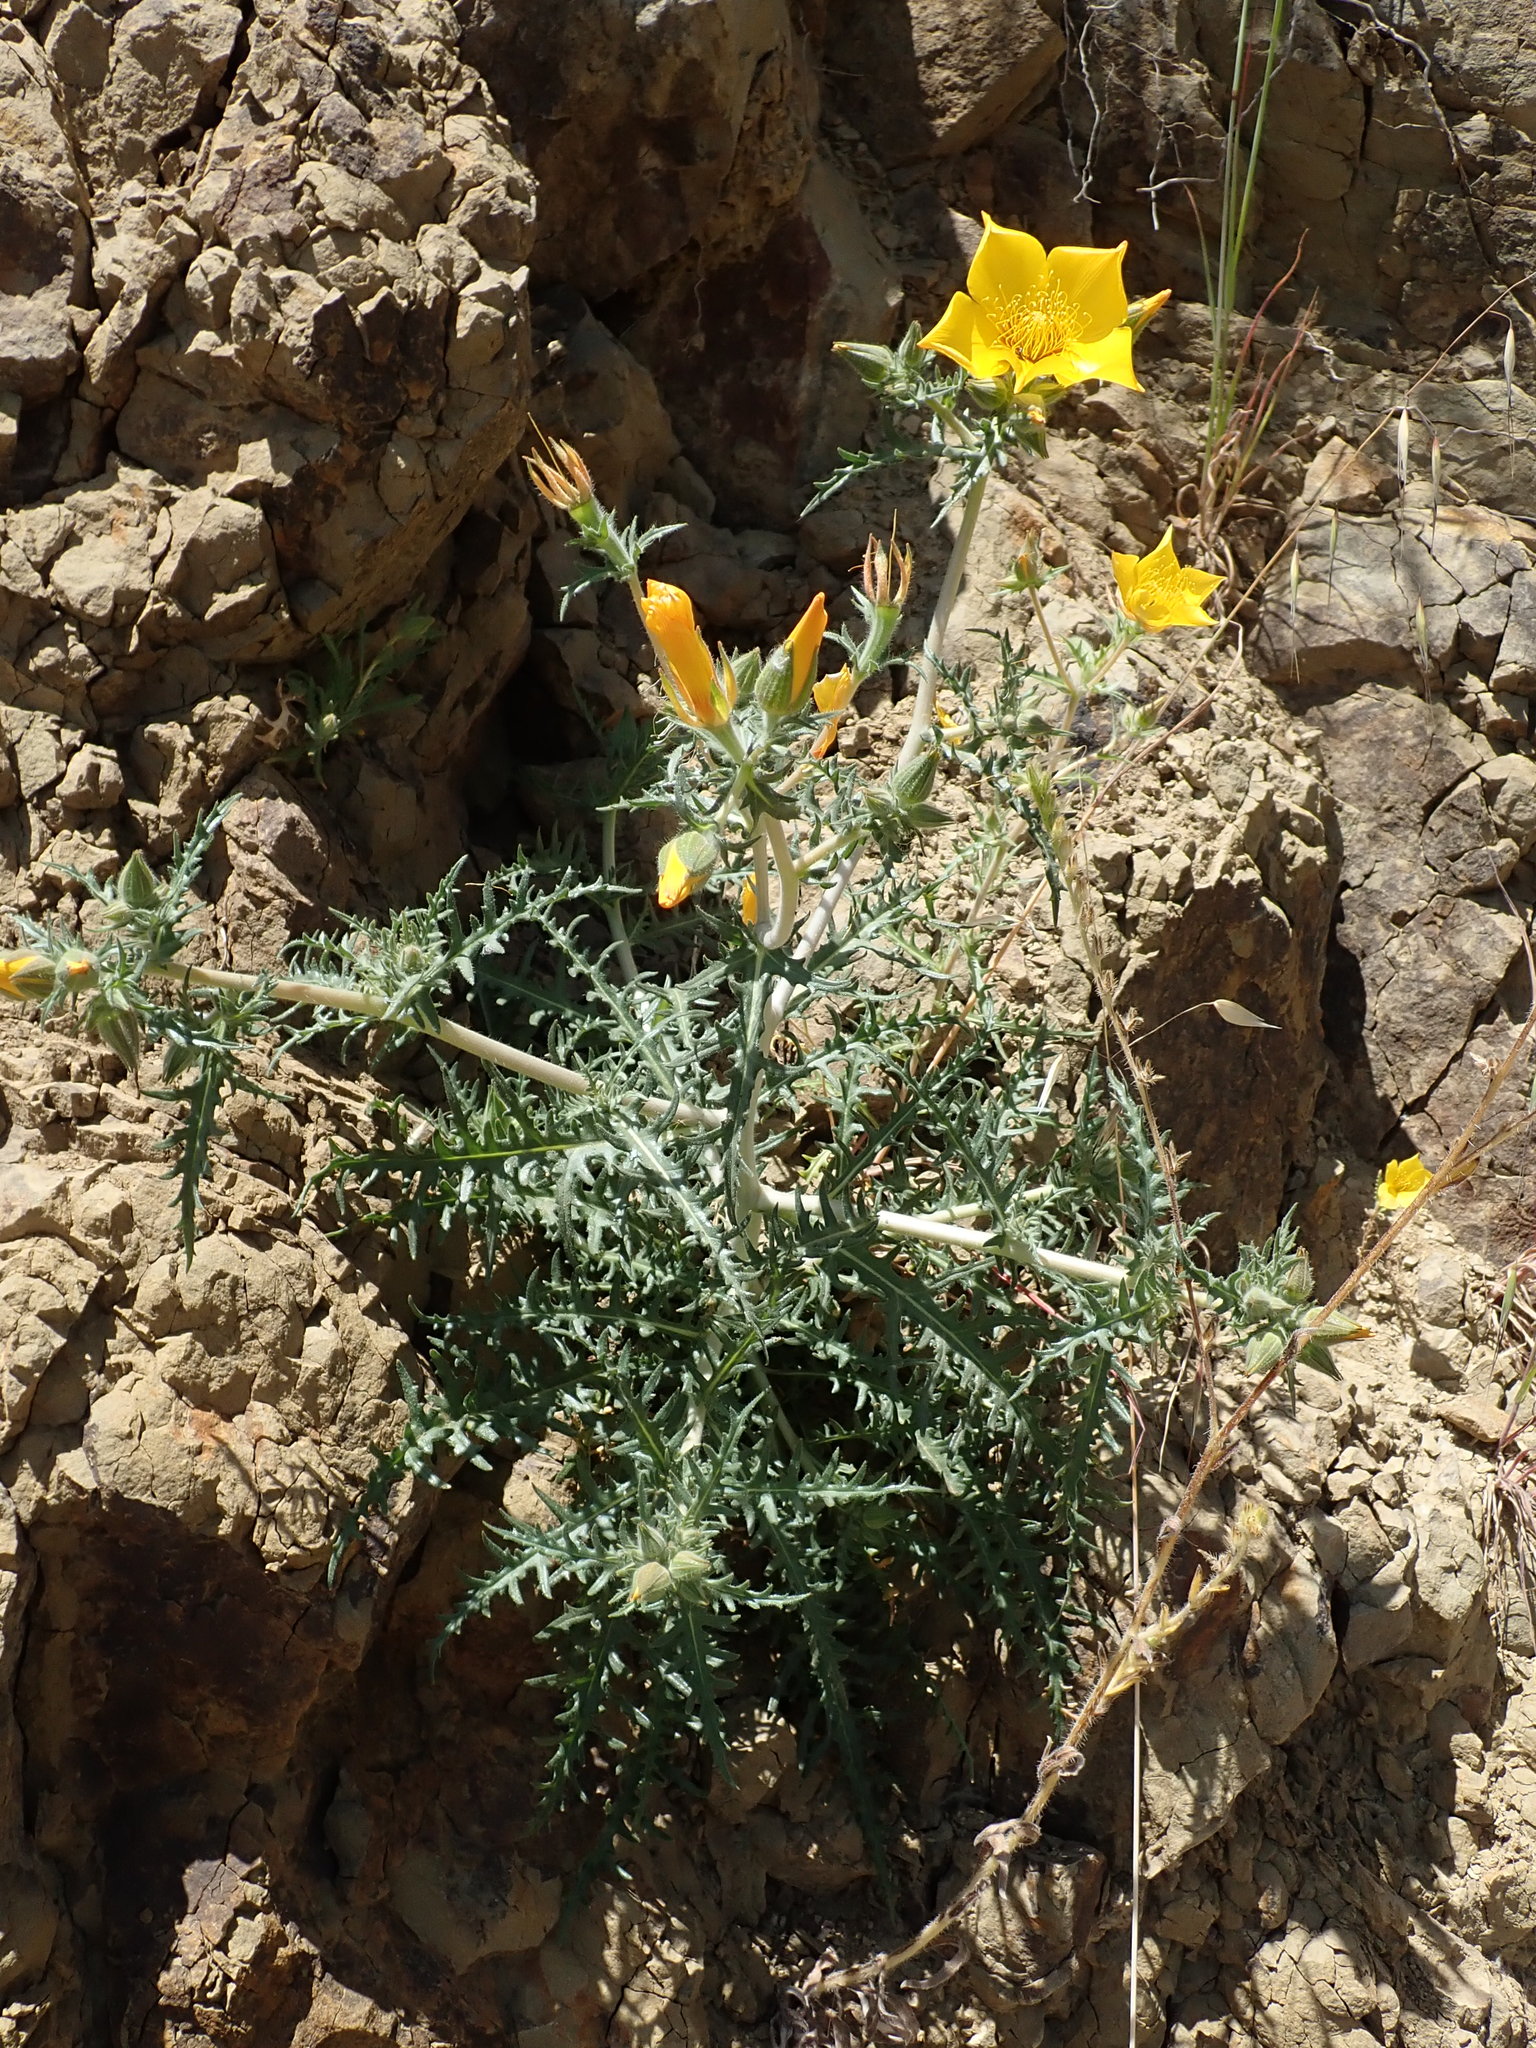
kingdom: Plantae
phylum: Tracheophyta
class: Magnoliopsida
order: Cornales
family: Loasaceae
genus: Mentzelia
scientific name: Mentzelia lindleyi
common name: Golden bartonia
